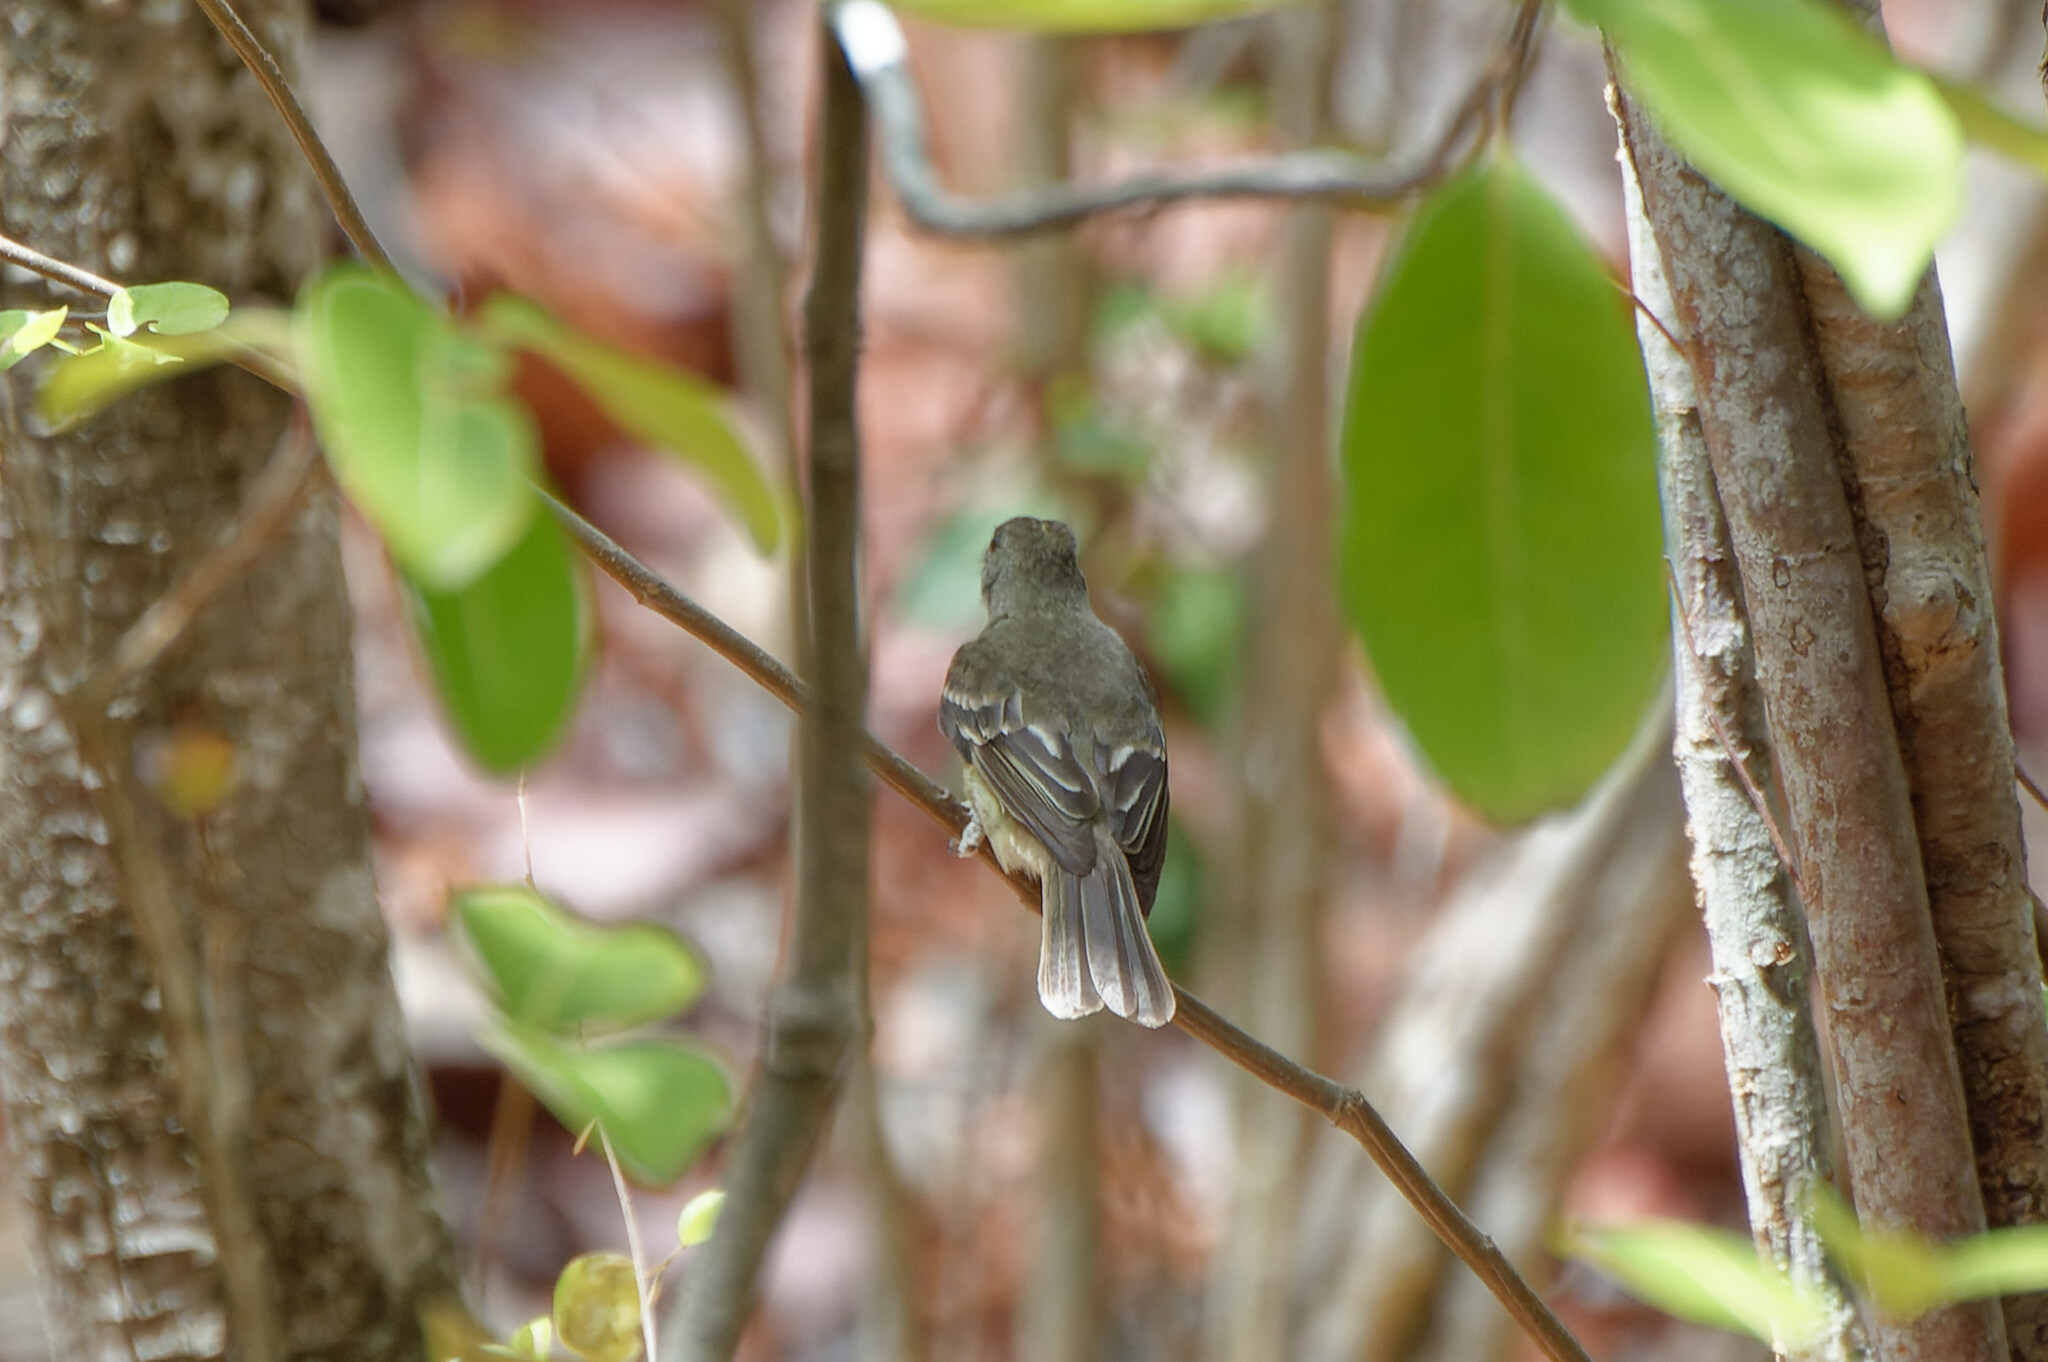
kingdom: Animalia
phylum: Chordata
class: Aves
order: Passeriformes
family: Tyrannidae
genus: Elaenia
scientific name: Elaenia martinica
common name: Caribbean elaenia
